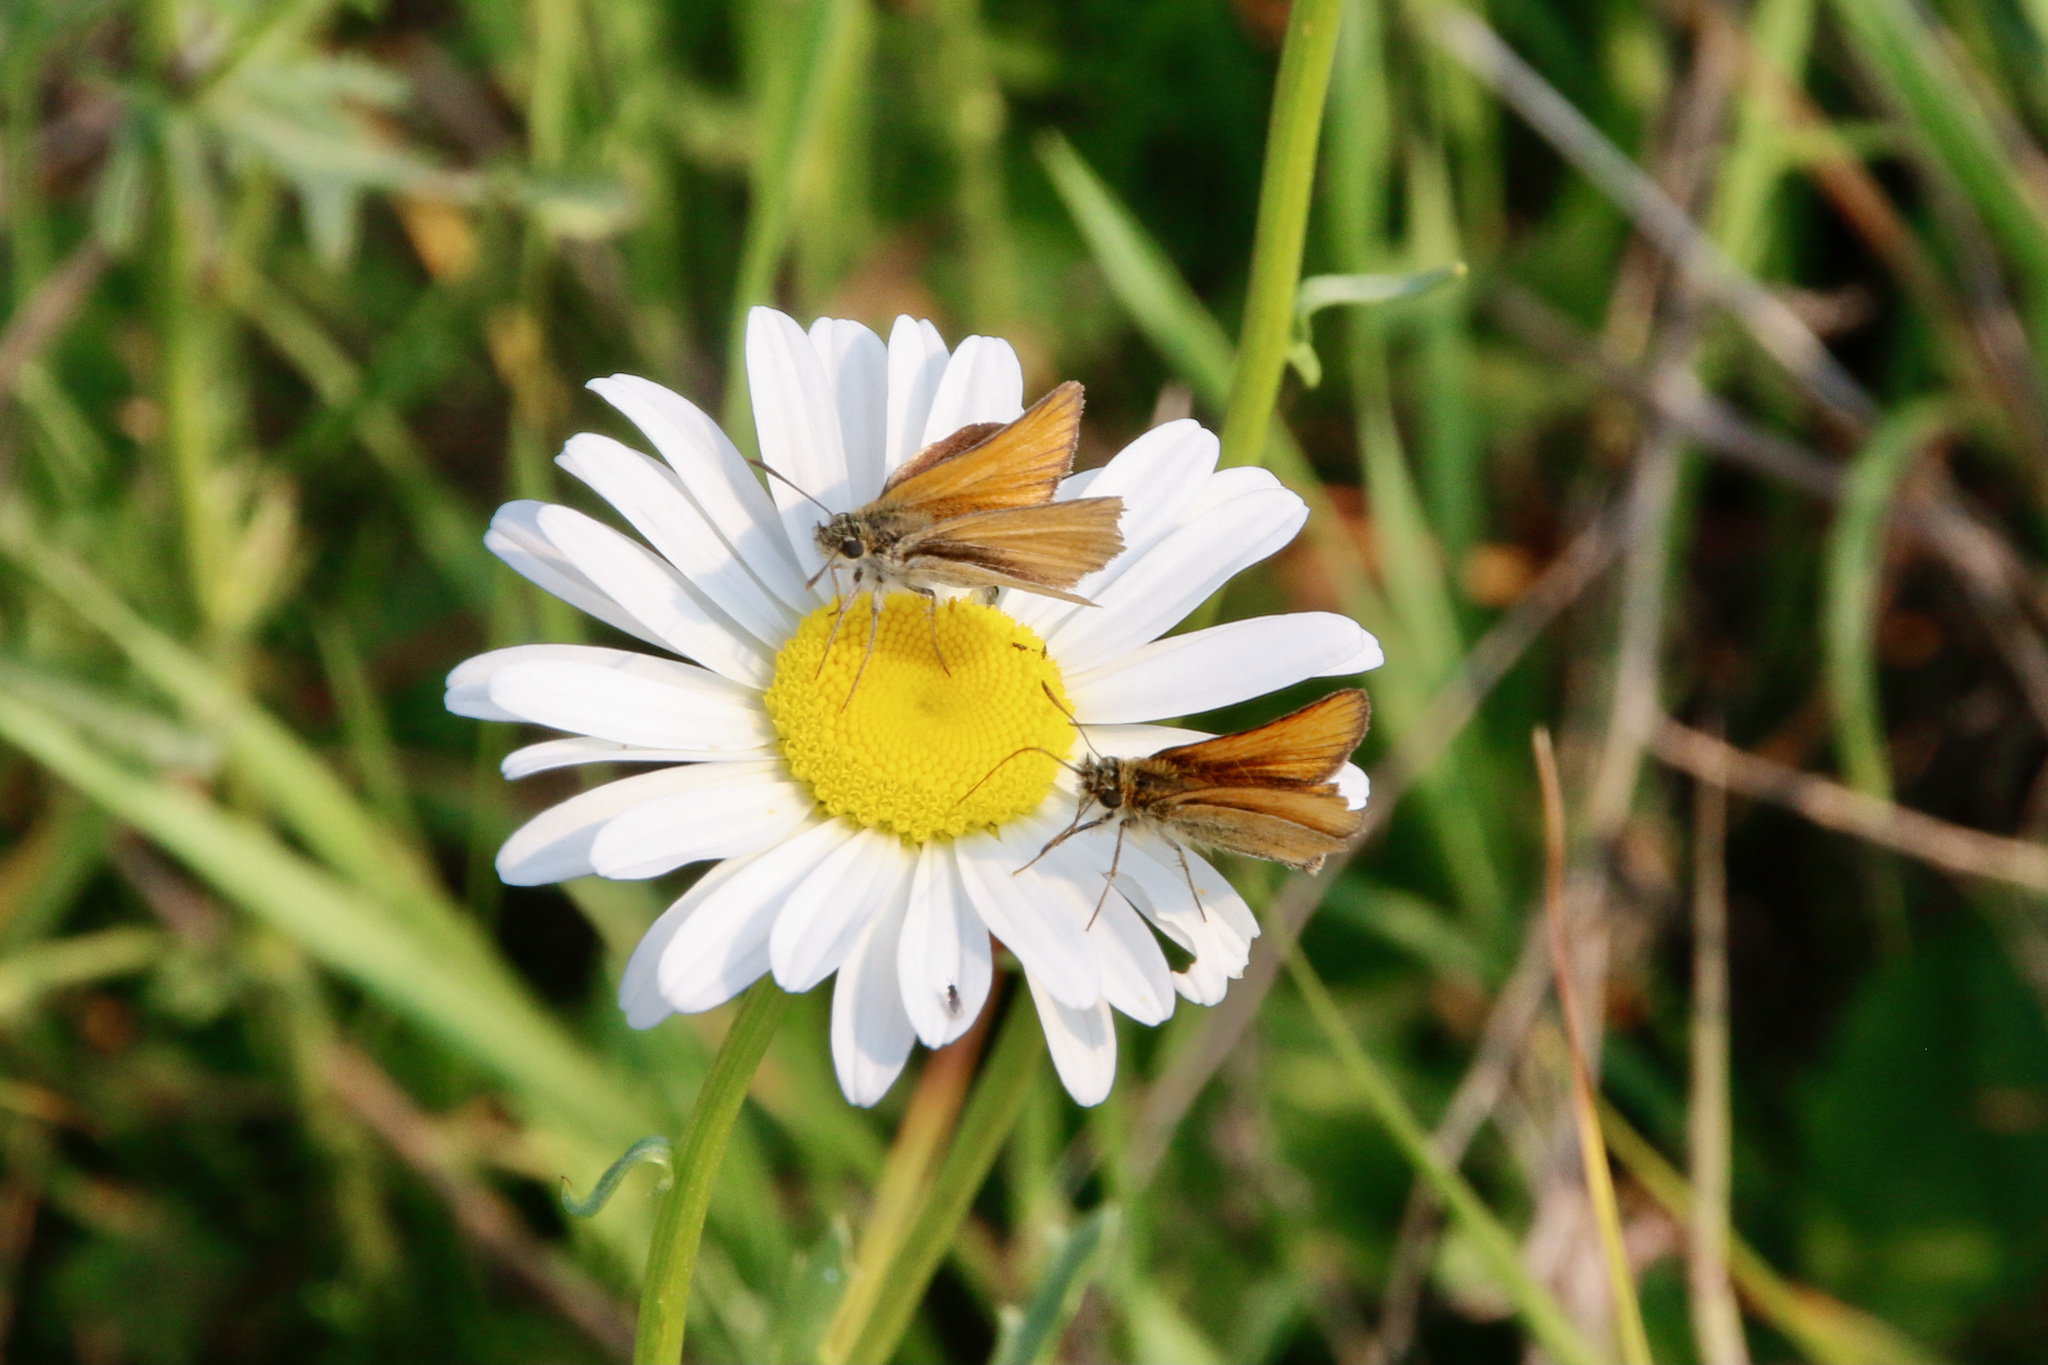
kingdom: Animalia
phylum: Arthropoda
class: Insecta
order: Lepidoptera
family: Hesperiidae
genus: Thymelicus
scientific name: Thymelicus lineola
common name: Essex skipper
